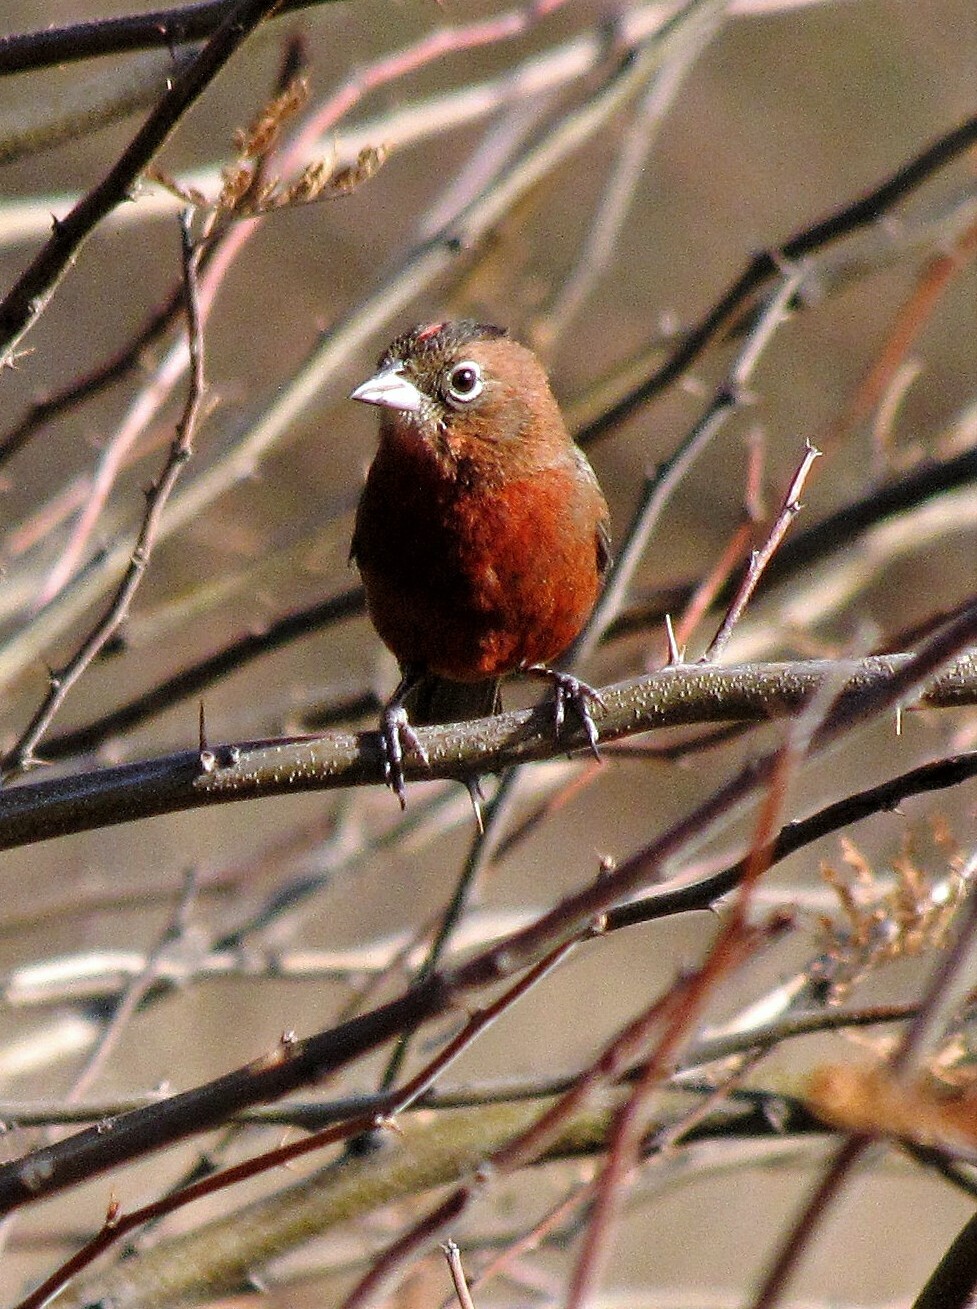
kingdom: Animalia
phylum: Chordata
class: Aves
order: Passeriformes
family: Thraupidae
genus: Coryphospingus
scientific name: Coryphospingus cucullatus
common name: Red pileated finch
